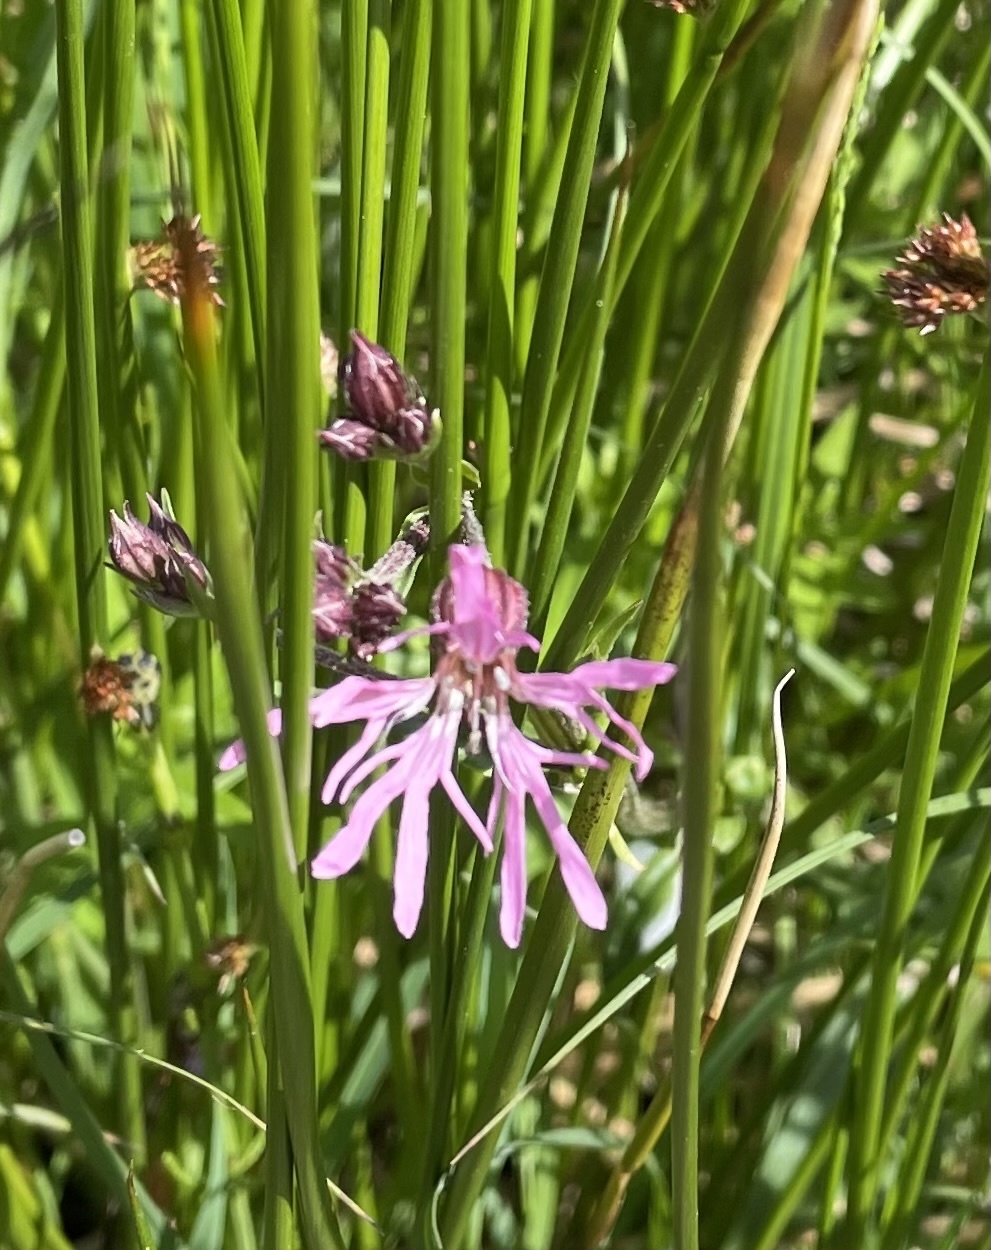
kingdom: Plantae
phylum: Tracheophyta
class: Magnoliopsida
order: Caryophyllales
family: Caryophyllaceae
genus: Silene
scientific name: Silene flos-cuculi
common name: Ragged-robin
